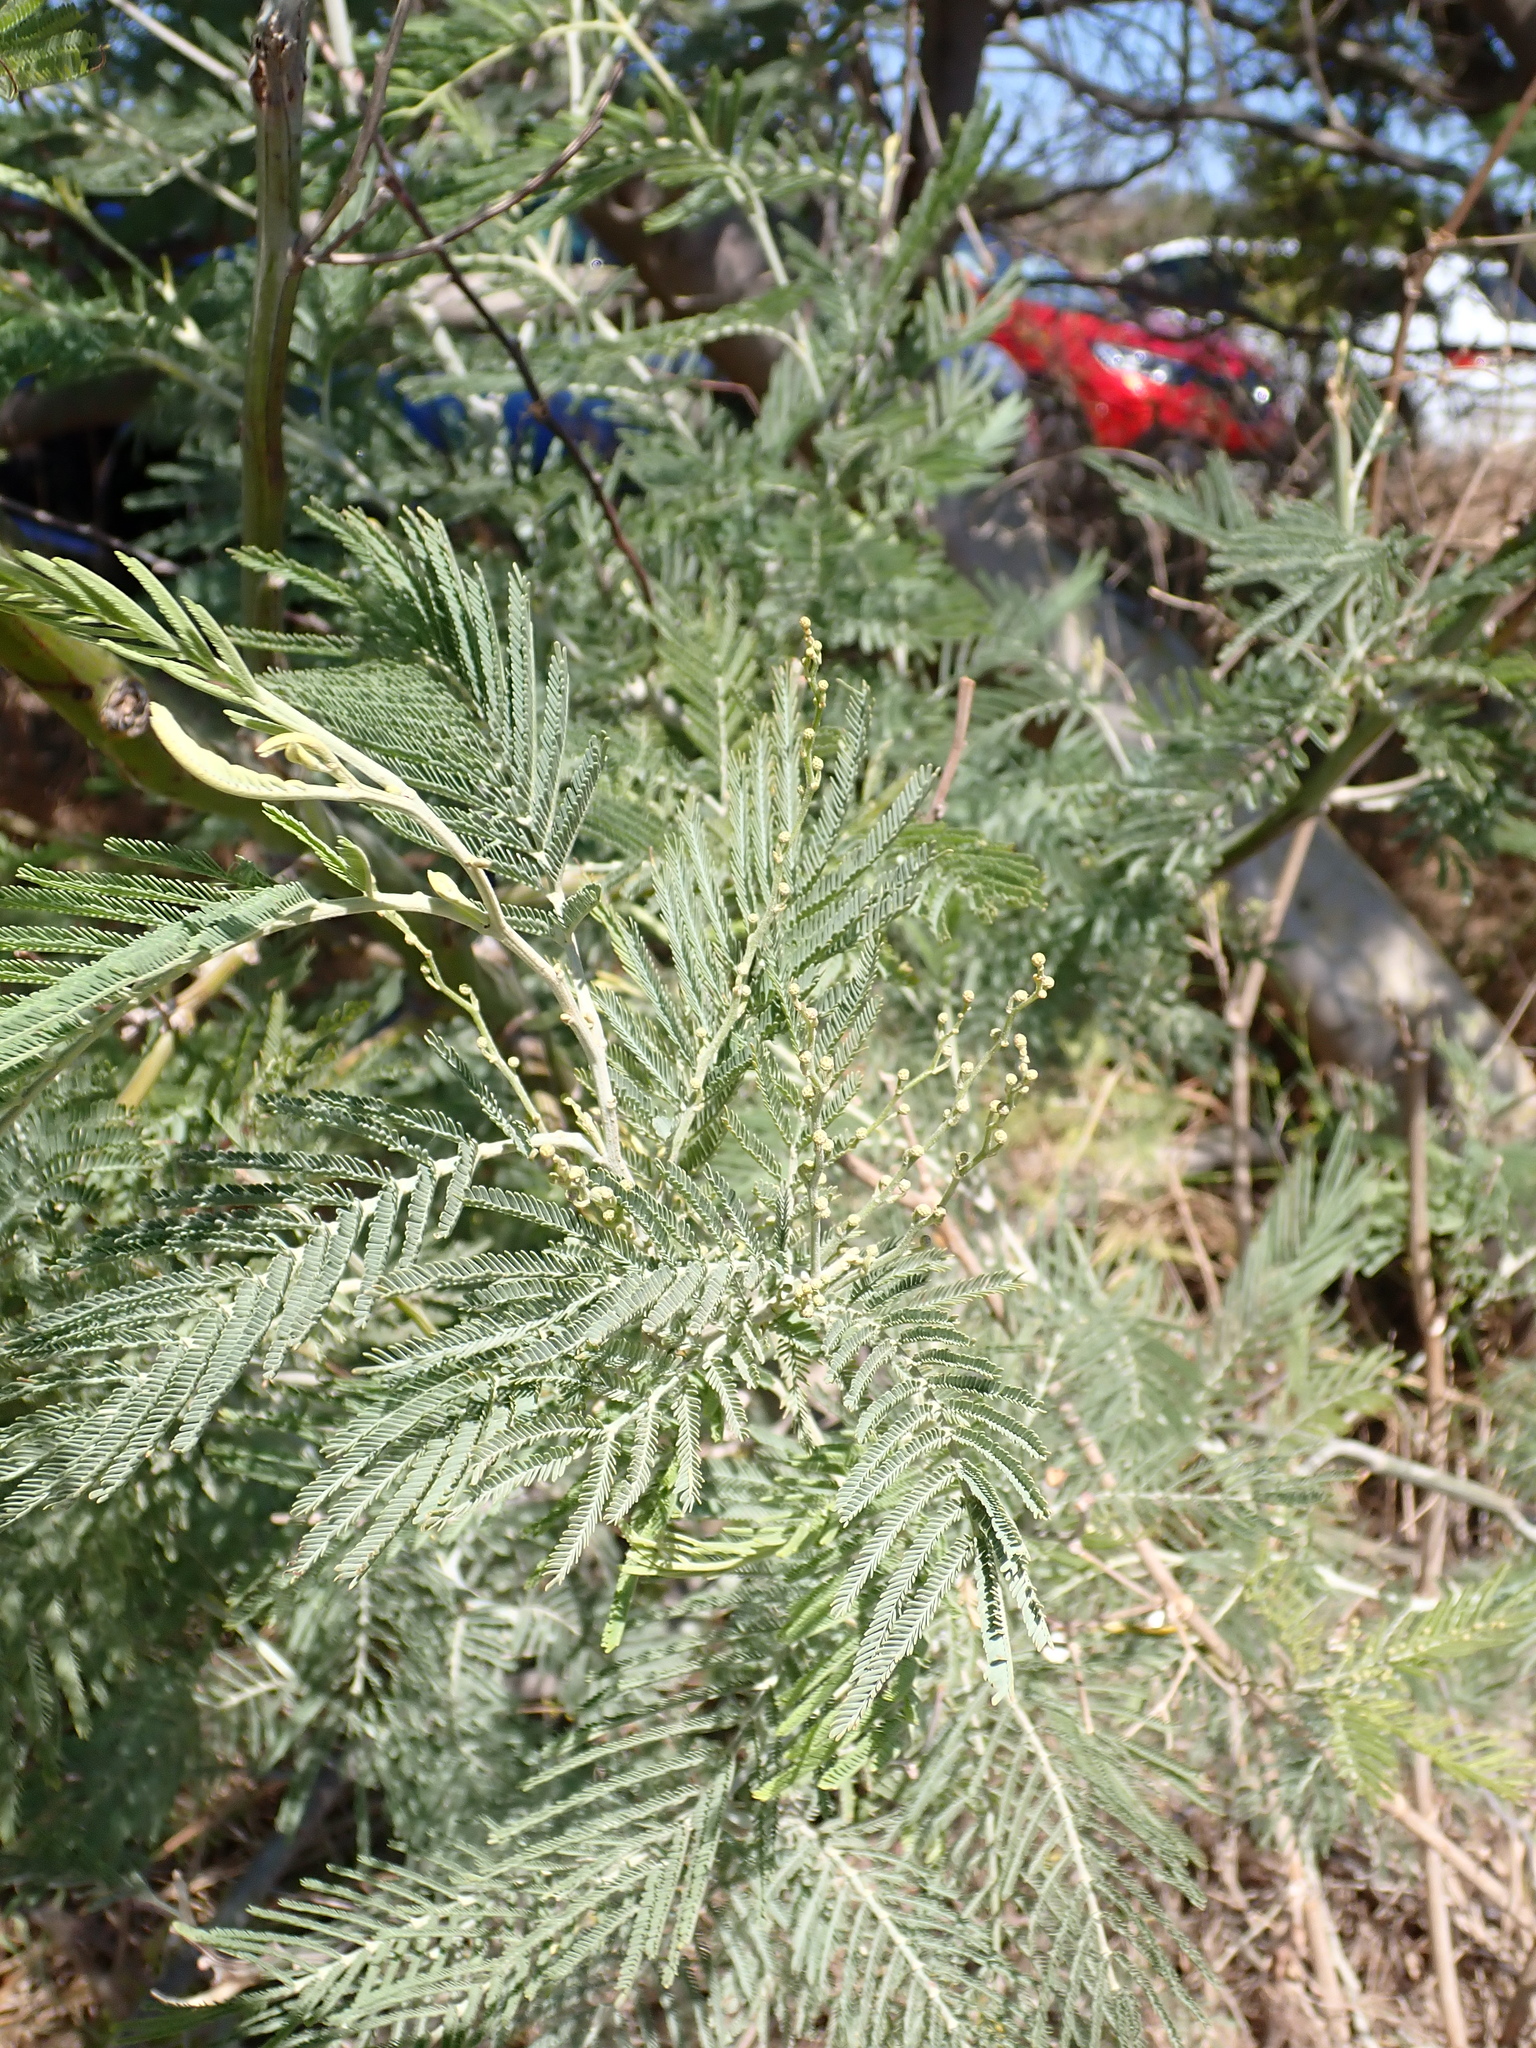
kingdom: Plantae
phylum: Tracheophyta
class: Magnoliopsida
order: Fabales
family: Fabaceae
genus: Acacia
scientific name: Acacia dealbata
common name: Silver wattle
